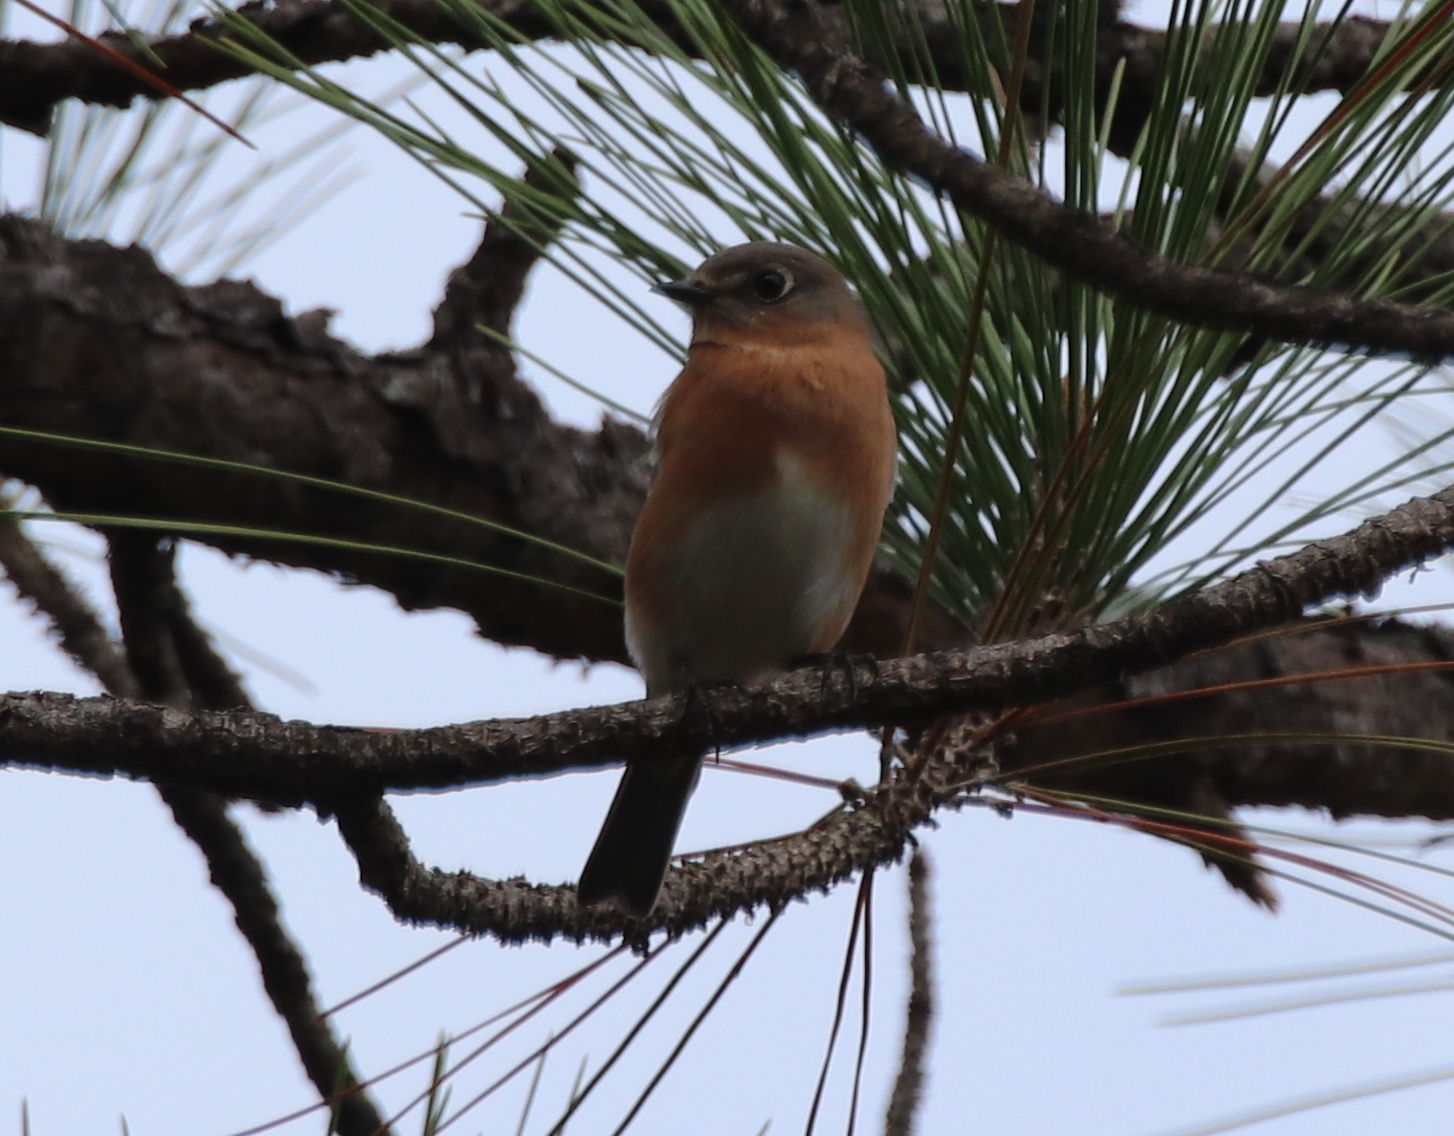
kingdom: Animalia
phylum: Chordata
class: Aves
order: Passeriformes
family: Turdidae
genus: Sialia
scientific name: Sialia sialis
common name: Eastern bluebird
